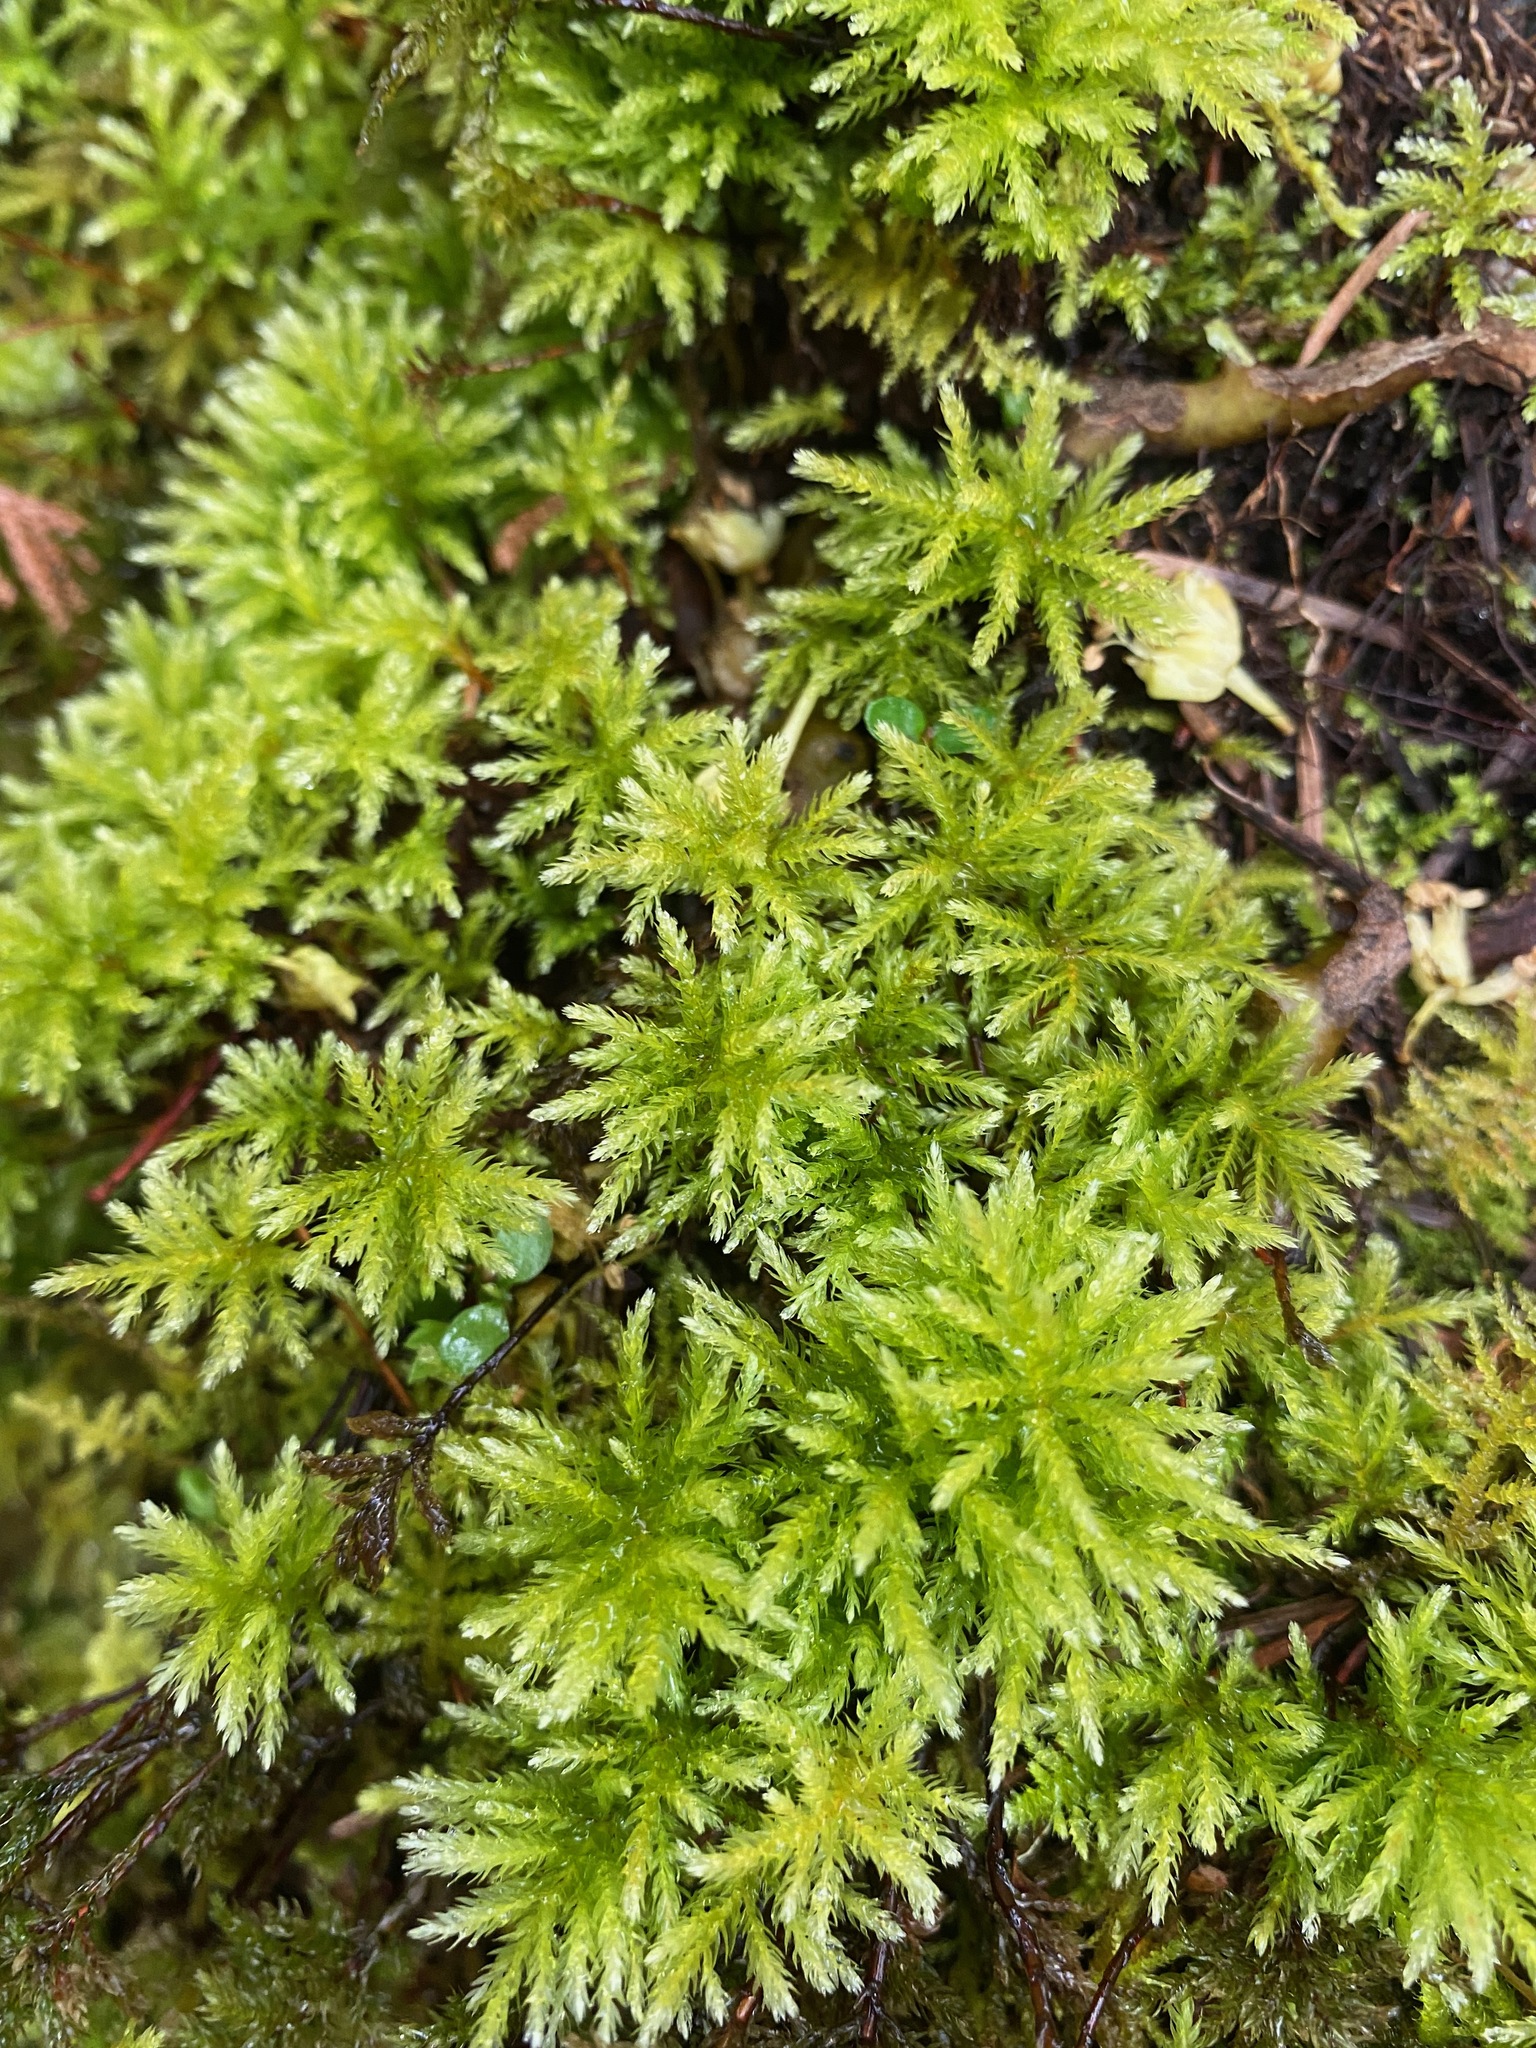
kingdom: Plantae
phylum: Bryophyta
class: Bryopsida
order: Bryales
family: Mniaceae
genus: Leucolepis
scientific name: Leucolepis acanthoneura
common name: Leucolepis umbrella moss
